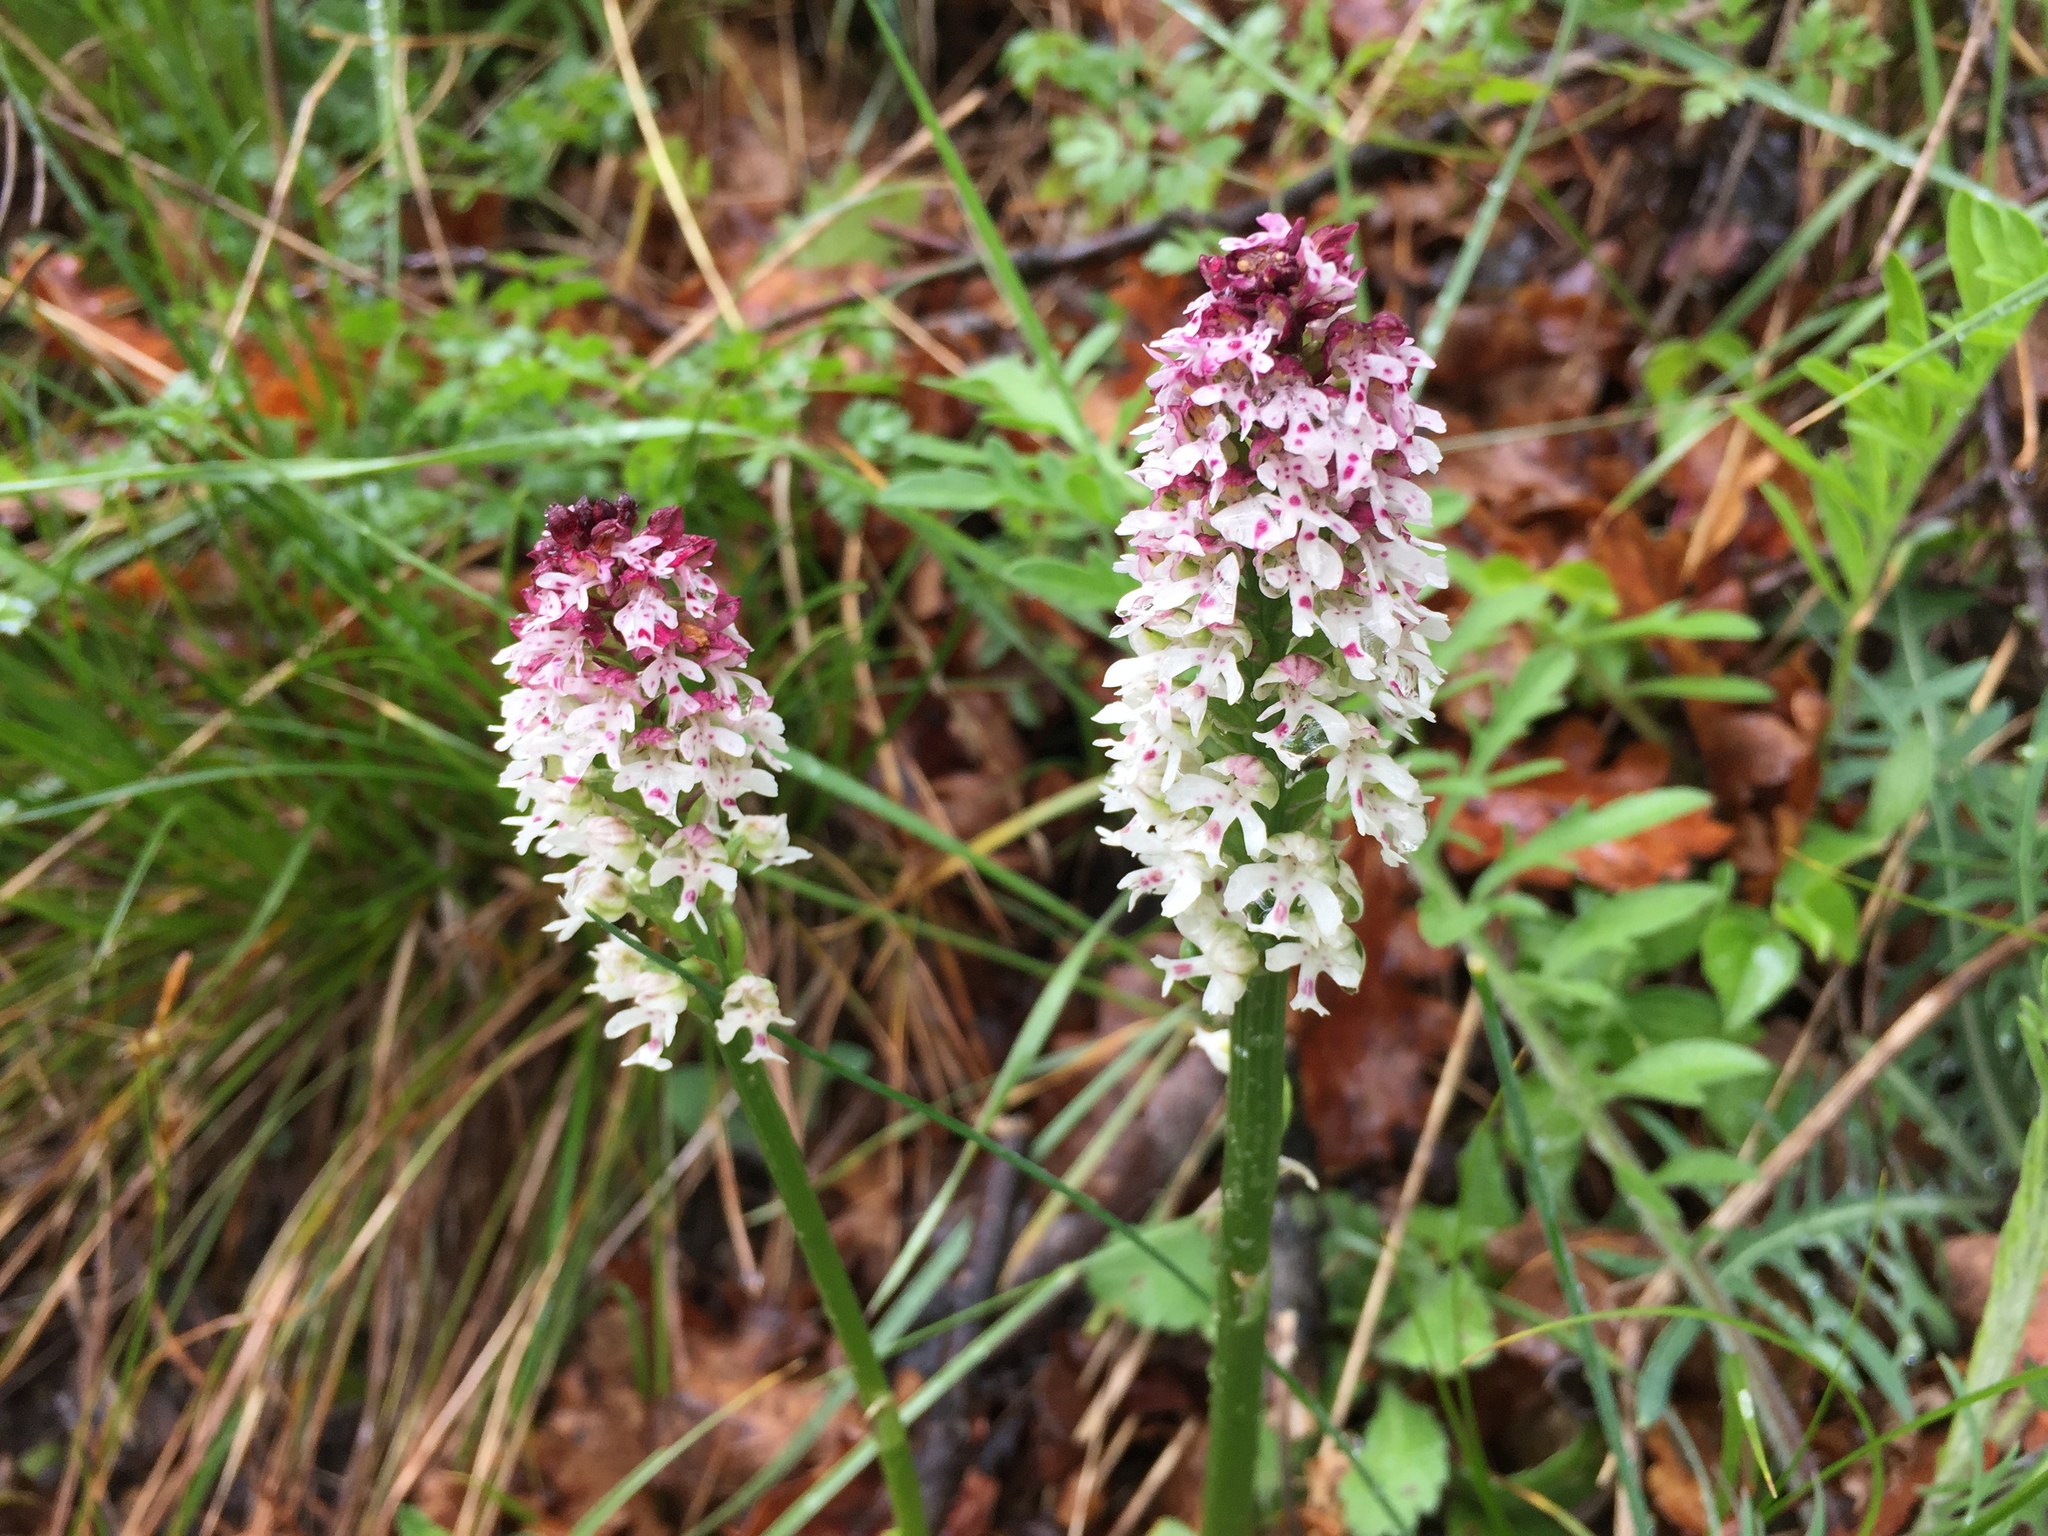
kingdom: Plantae
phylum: Tracheophyta
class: Liliopsida
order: Asparagales
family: Orchidaceae
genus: Neotinea
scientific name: Neotinea ustulata
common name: Burnt orchid
